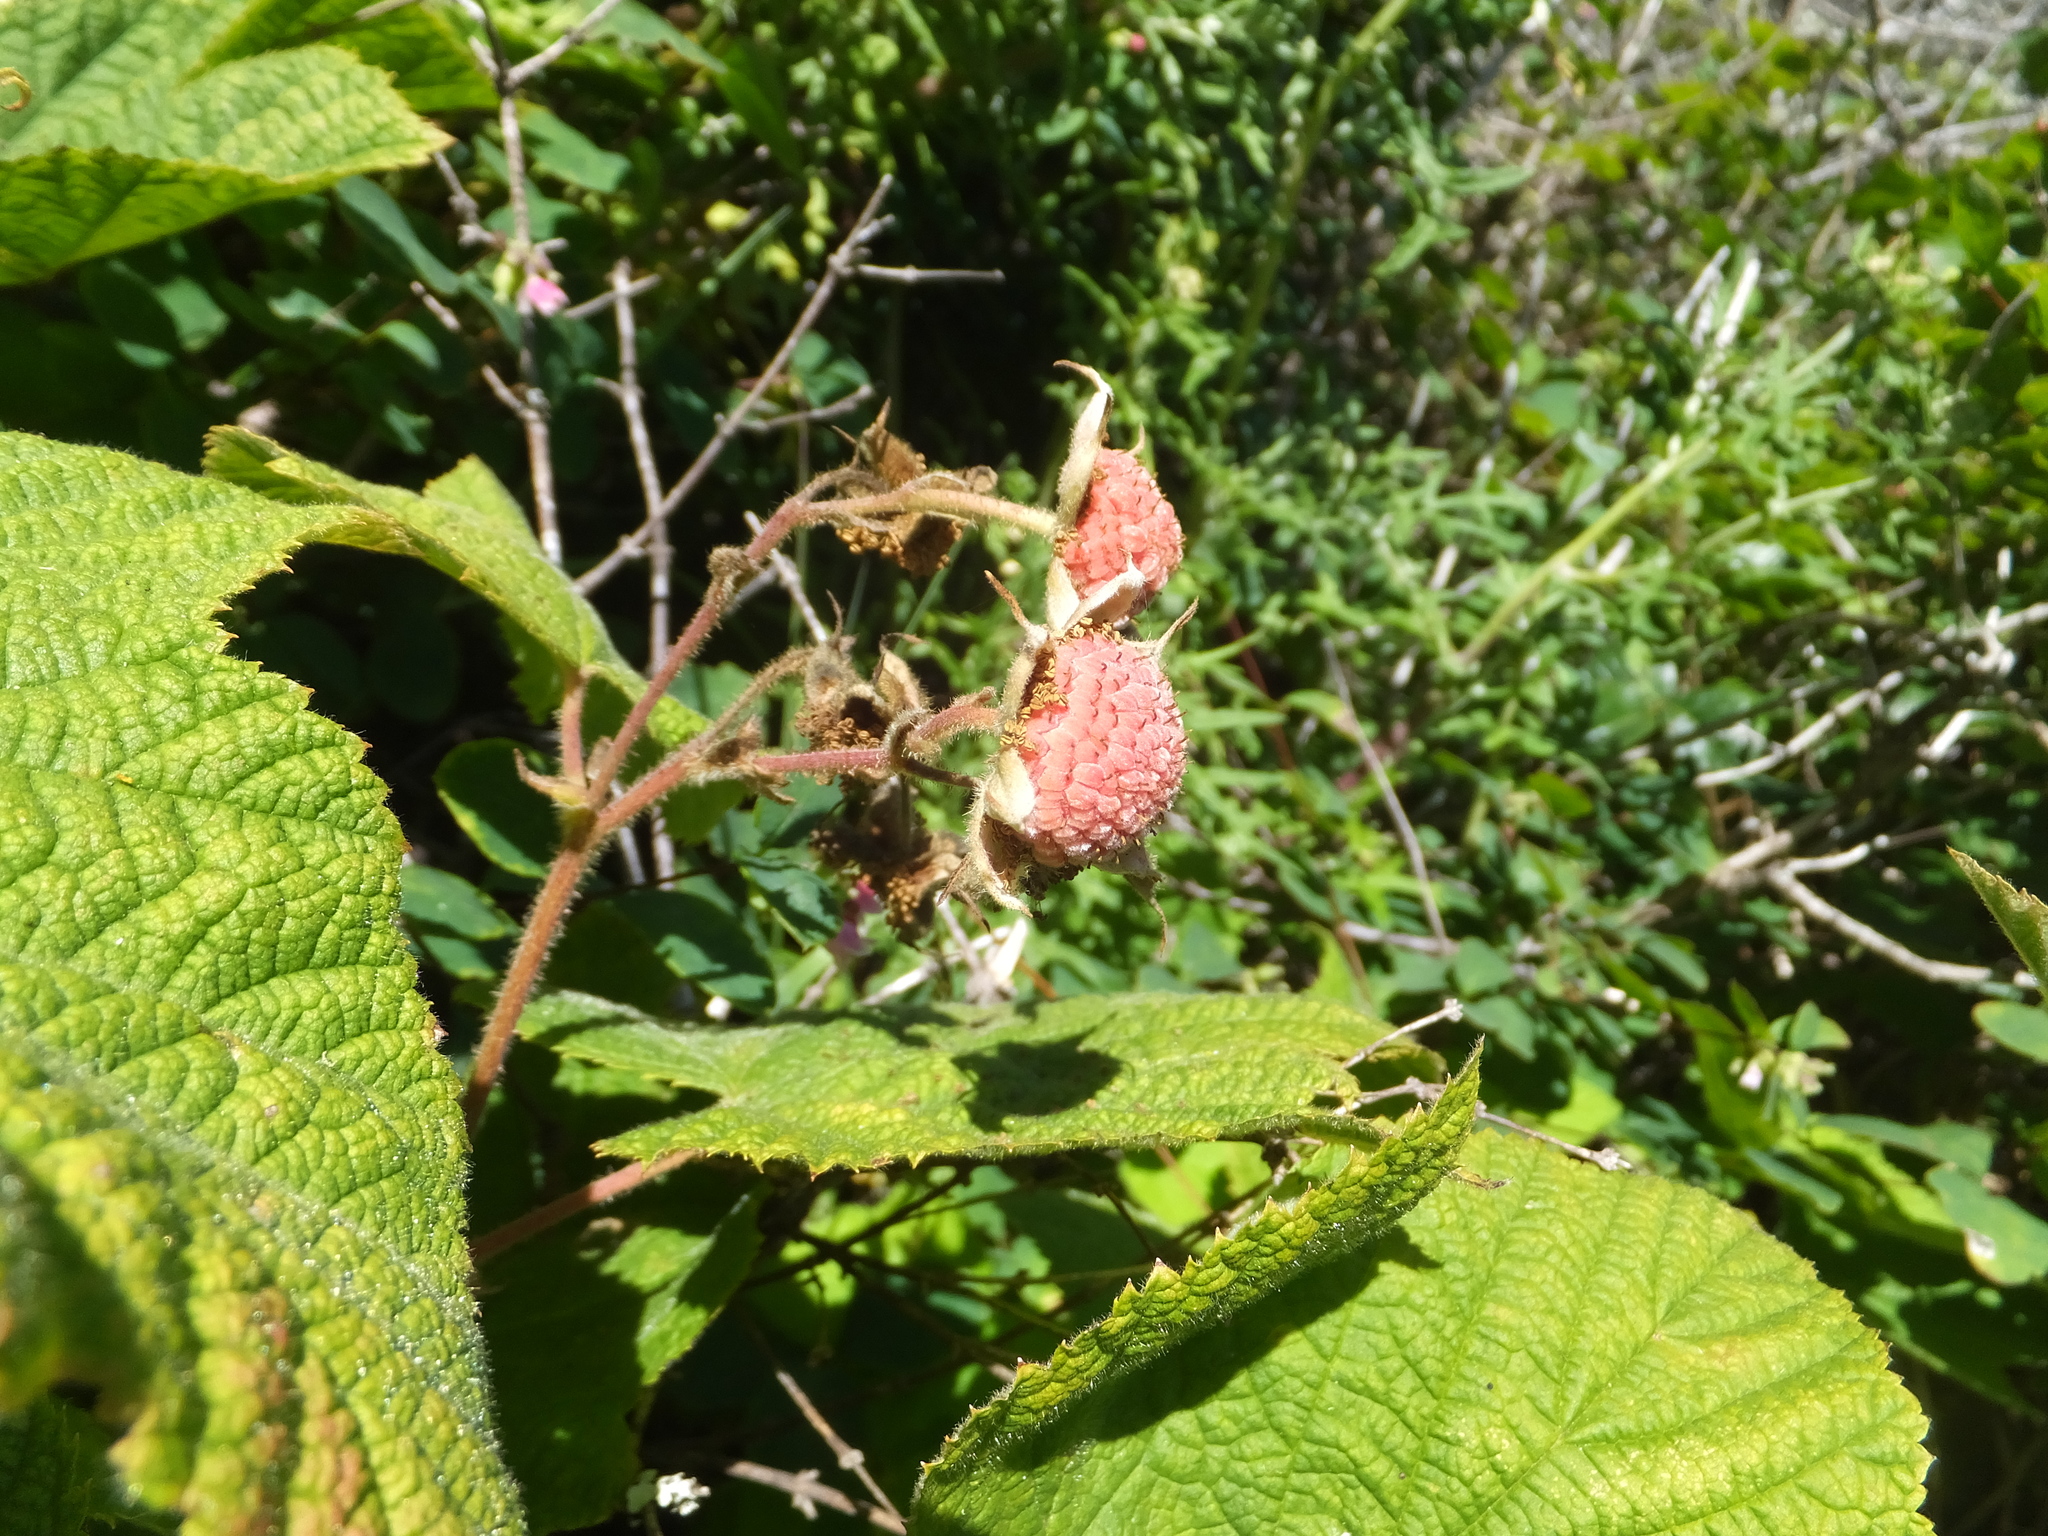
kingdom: Plantae
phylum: Tracheophyta
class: Magnoliopsida
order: Rosales
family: Rosaceae
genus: Rubus
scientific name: Rubus parviflorus
